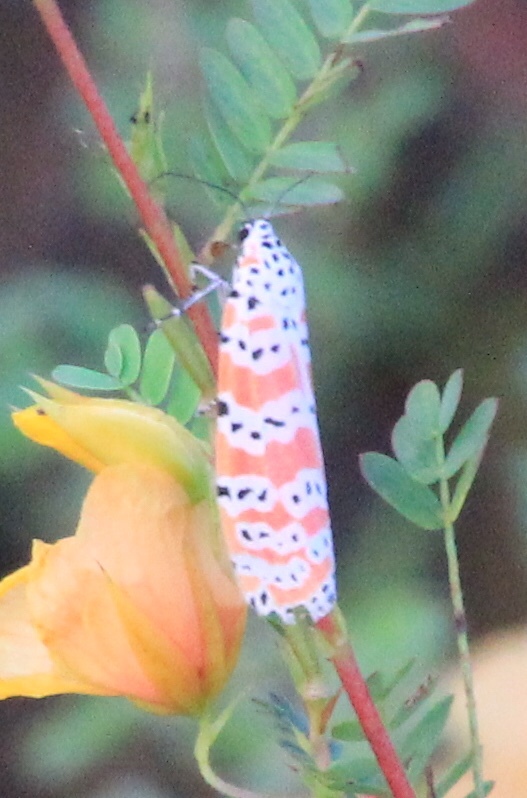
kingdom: Animalia
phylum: Arthropoda
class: Insecta
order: Lepidoptera
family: Erebidae
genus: Utetheisa
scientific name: Utetheisa ornatrix
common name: Beautiful utetheisa
